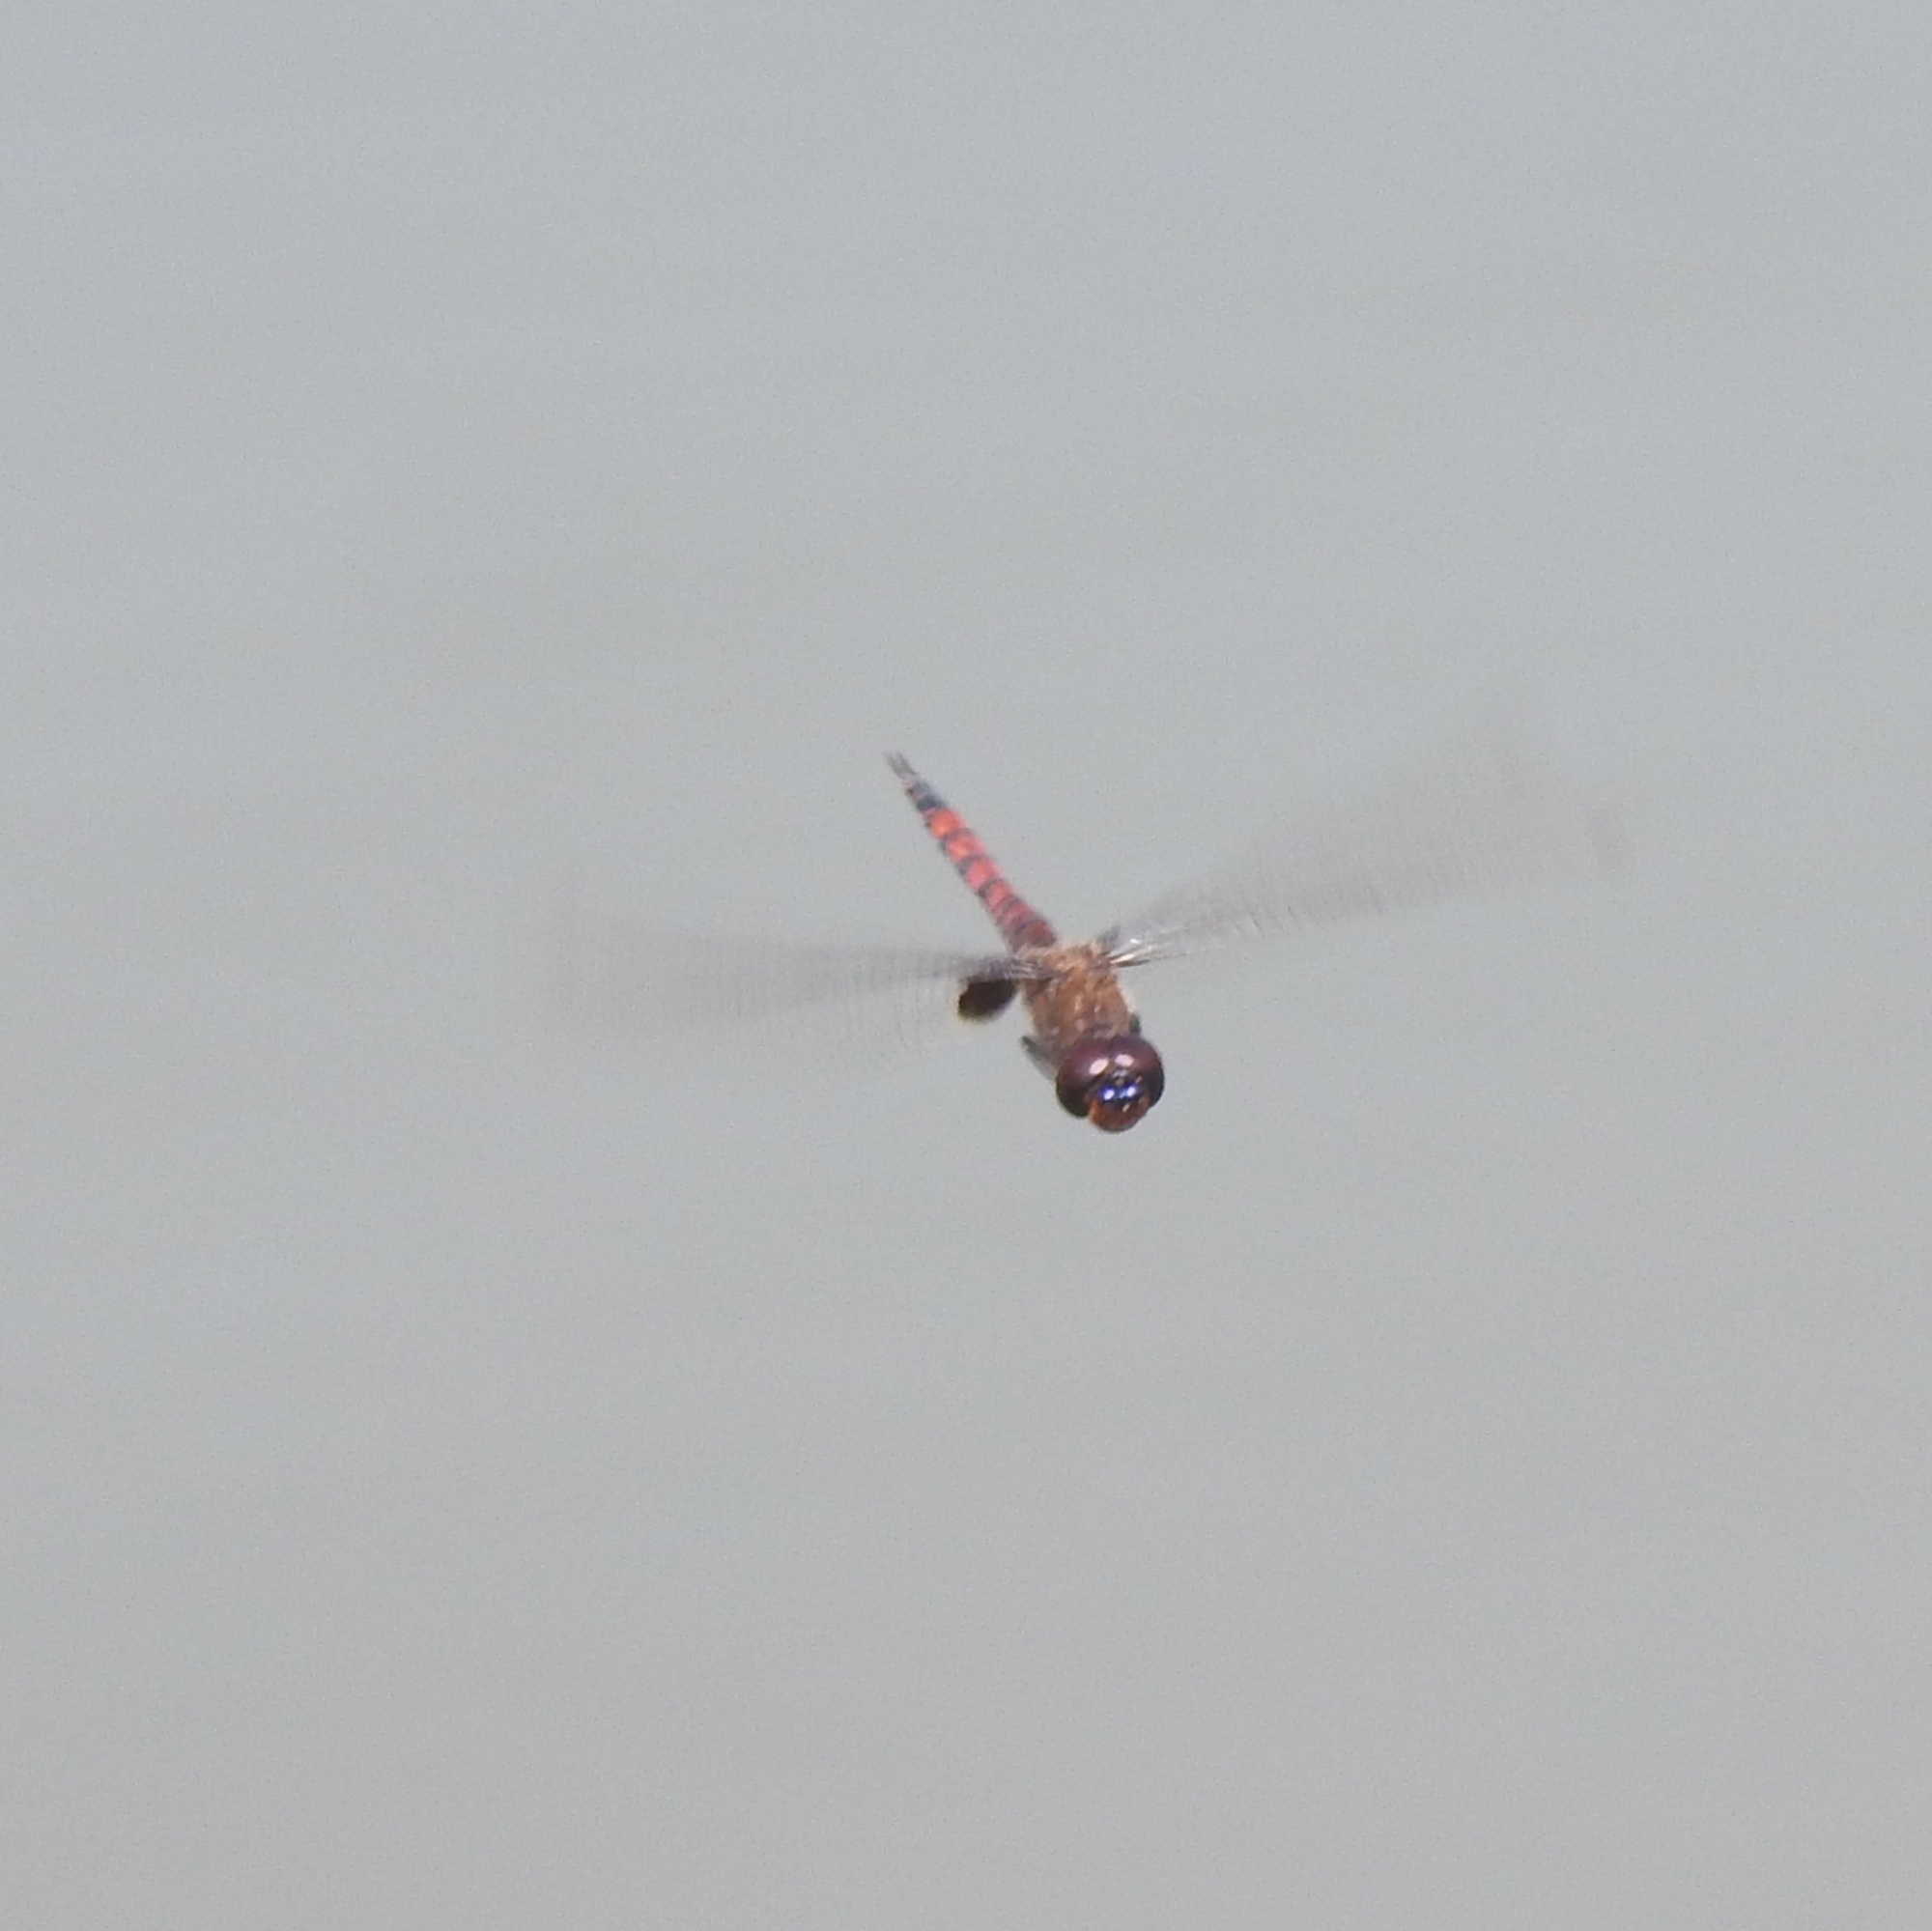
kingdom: Animalia
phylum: Arthropoda
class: Insecta
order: Odonata
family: Libellulidae
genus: Tramea
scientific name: Tramea limbata
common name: Ferruginous glider
